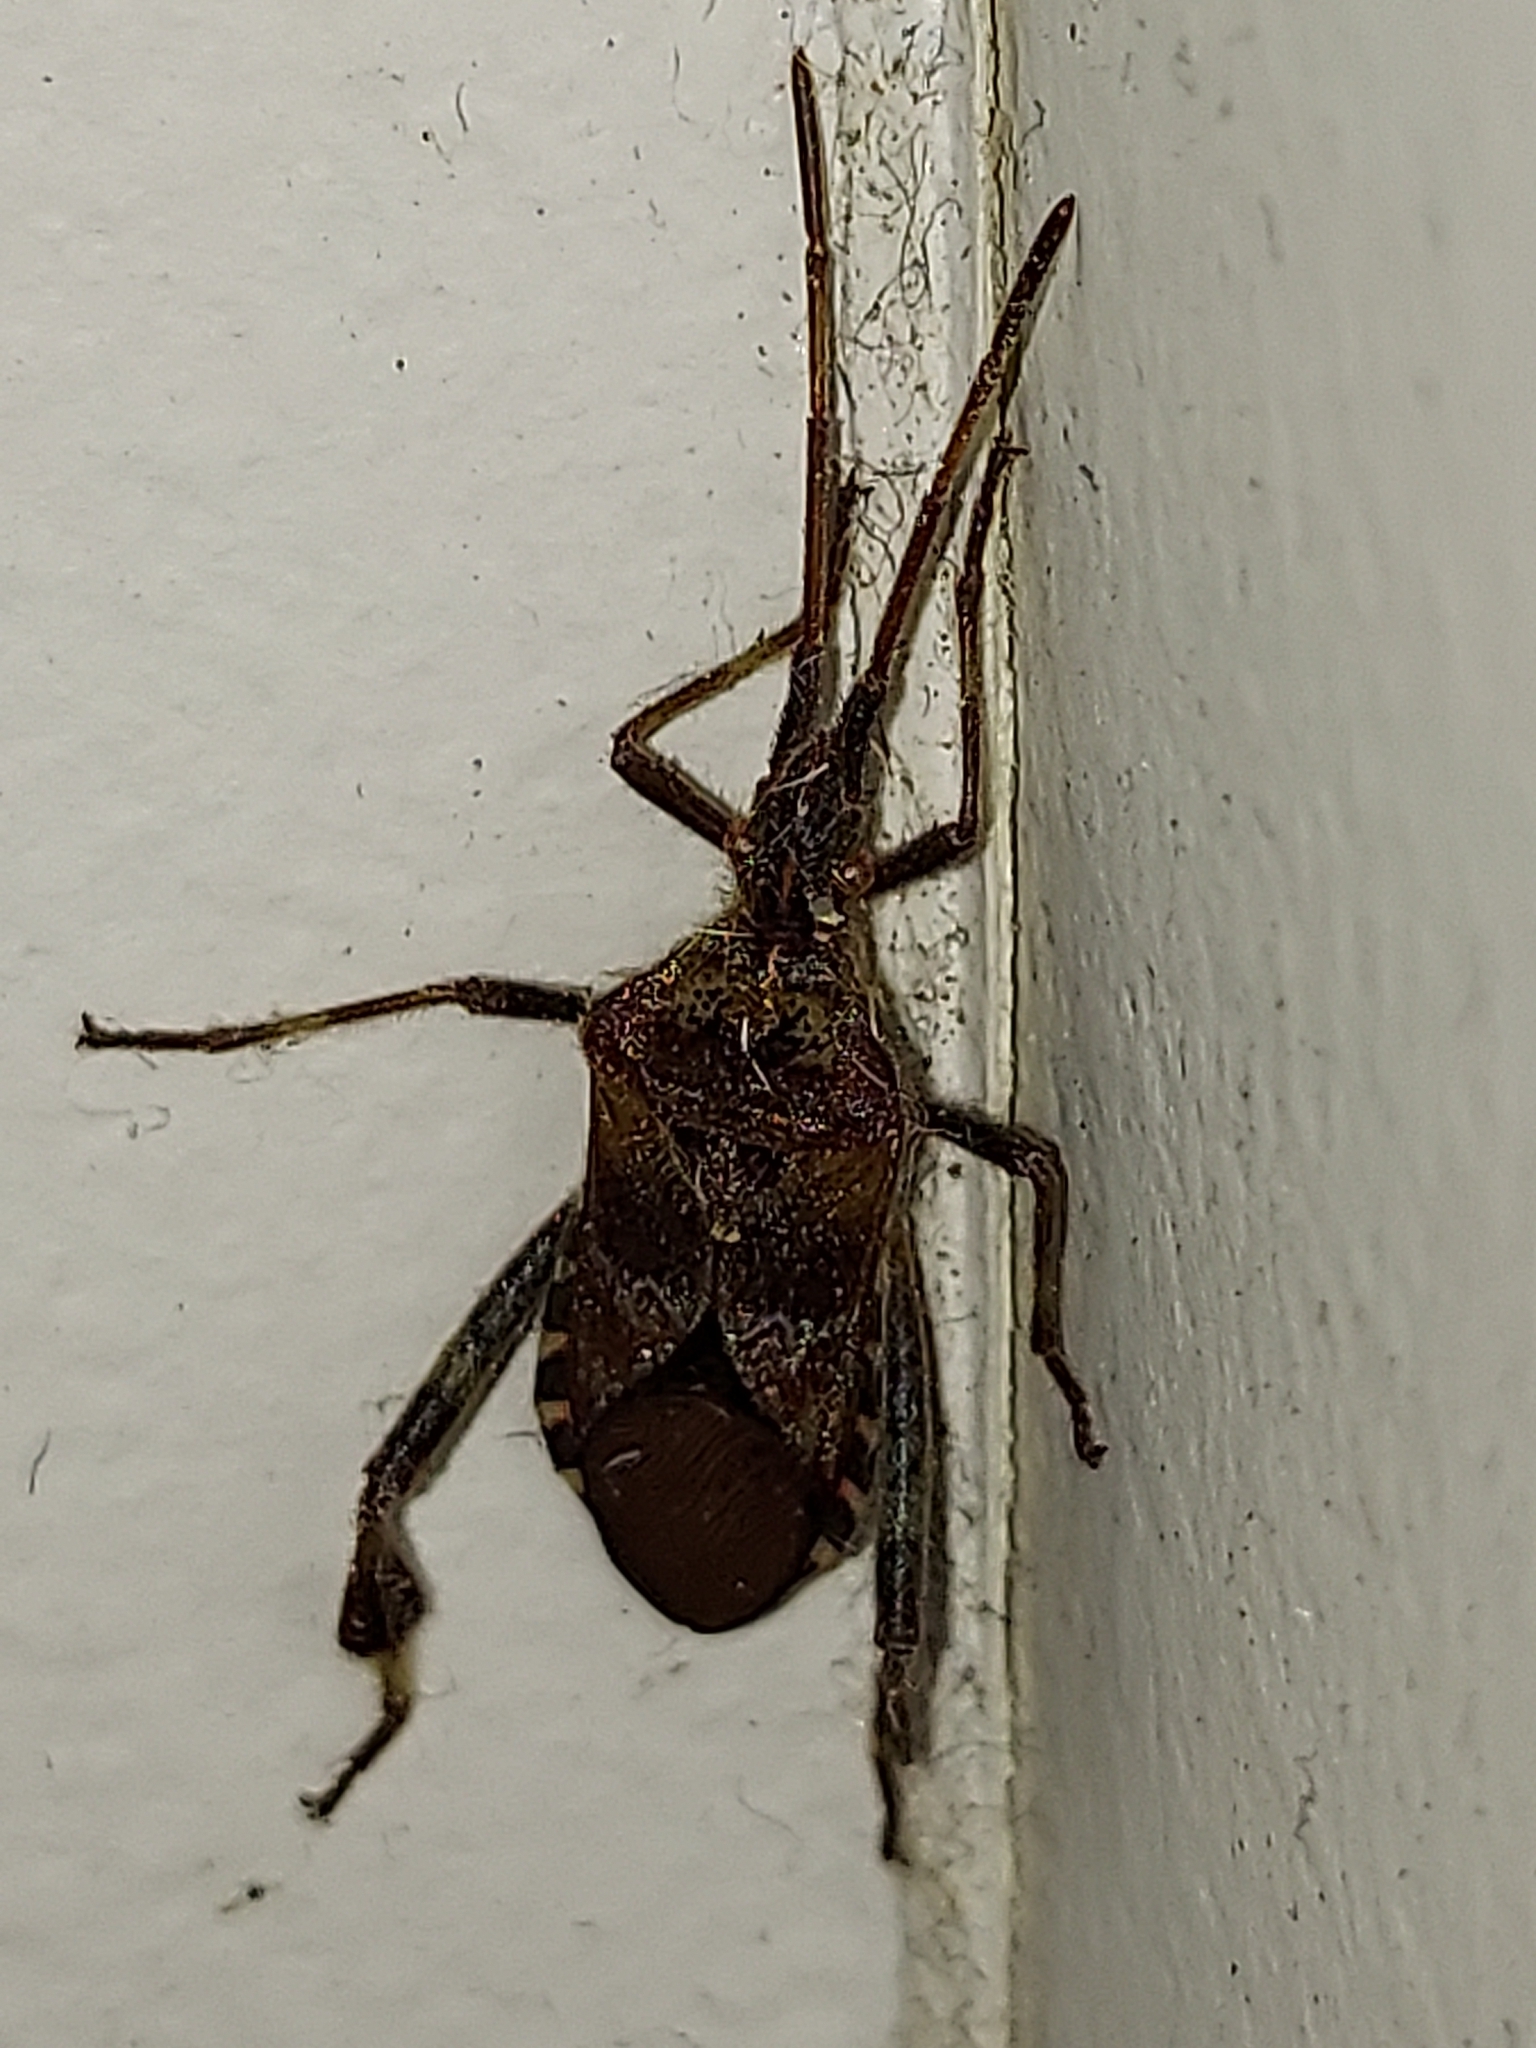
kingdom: Animalia
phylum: Arthropoda
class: Insecta
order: Hemiptera
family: Coreidae
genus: Leptoglossus
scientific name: Leptoglossus occidentalis
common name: Western conifer-seed bug
